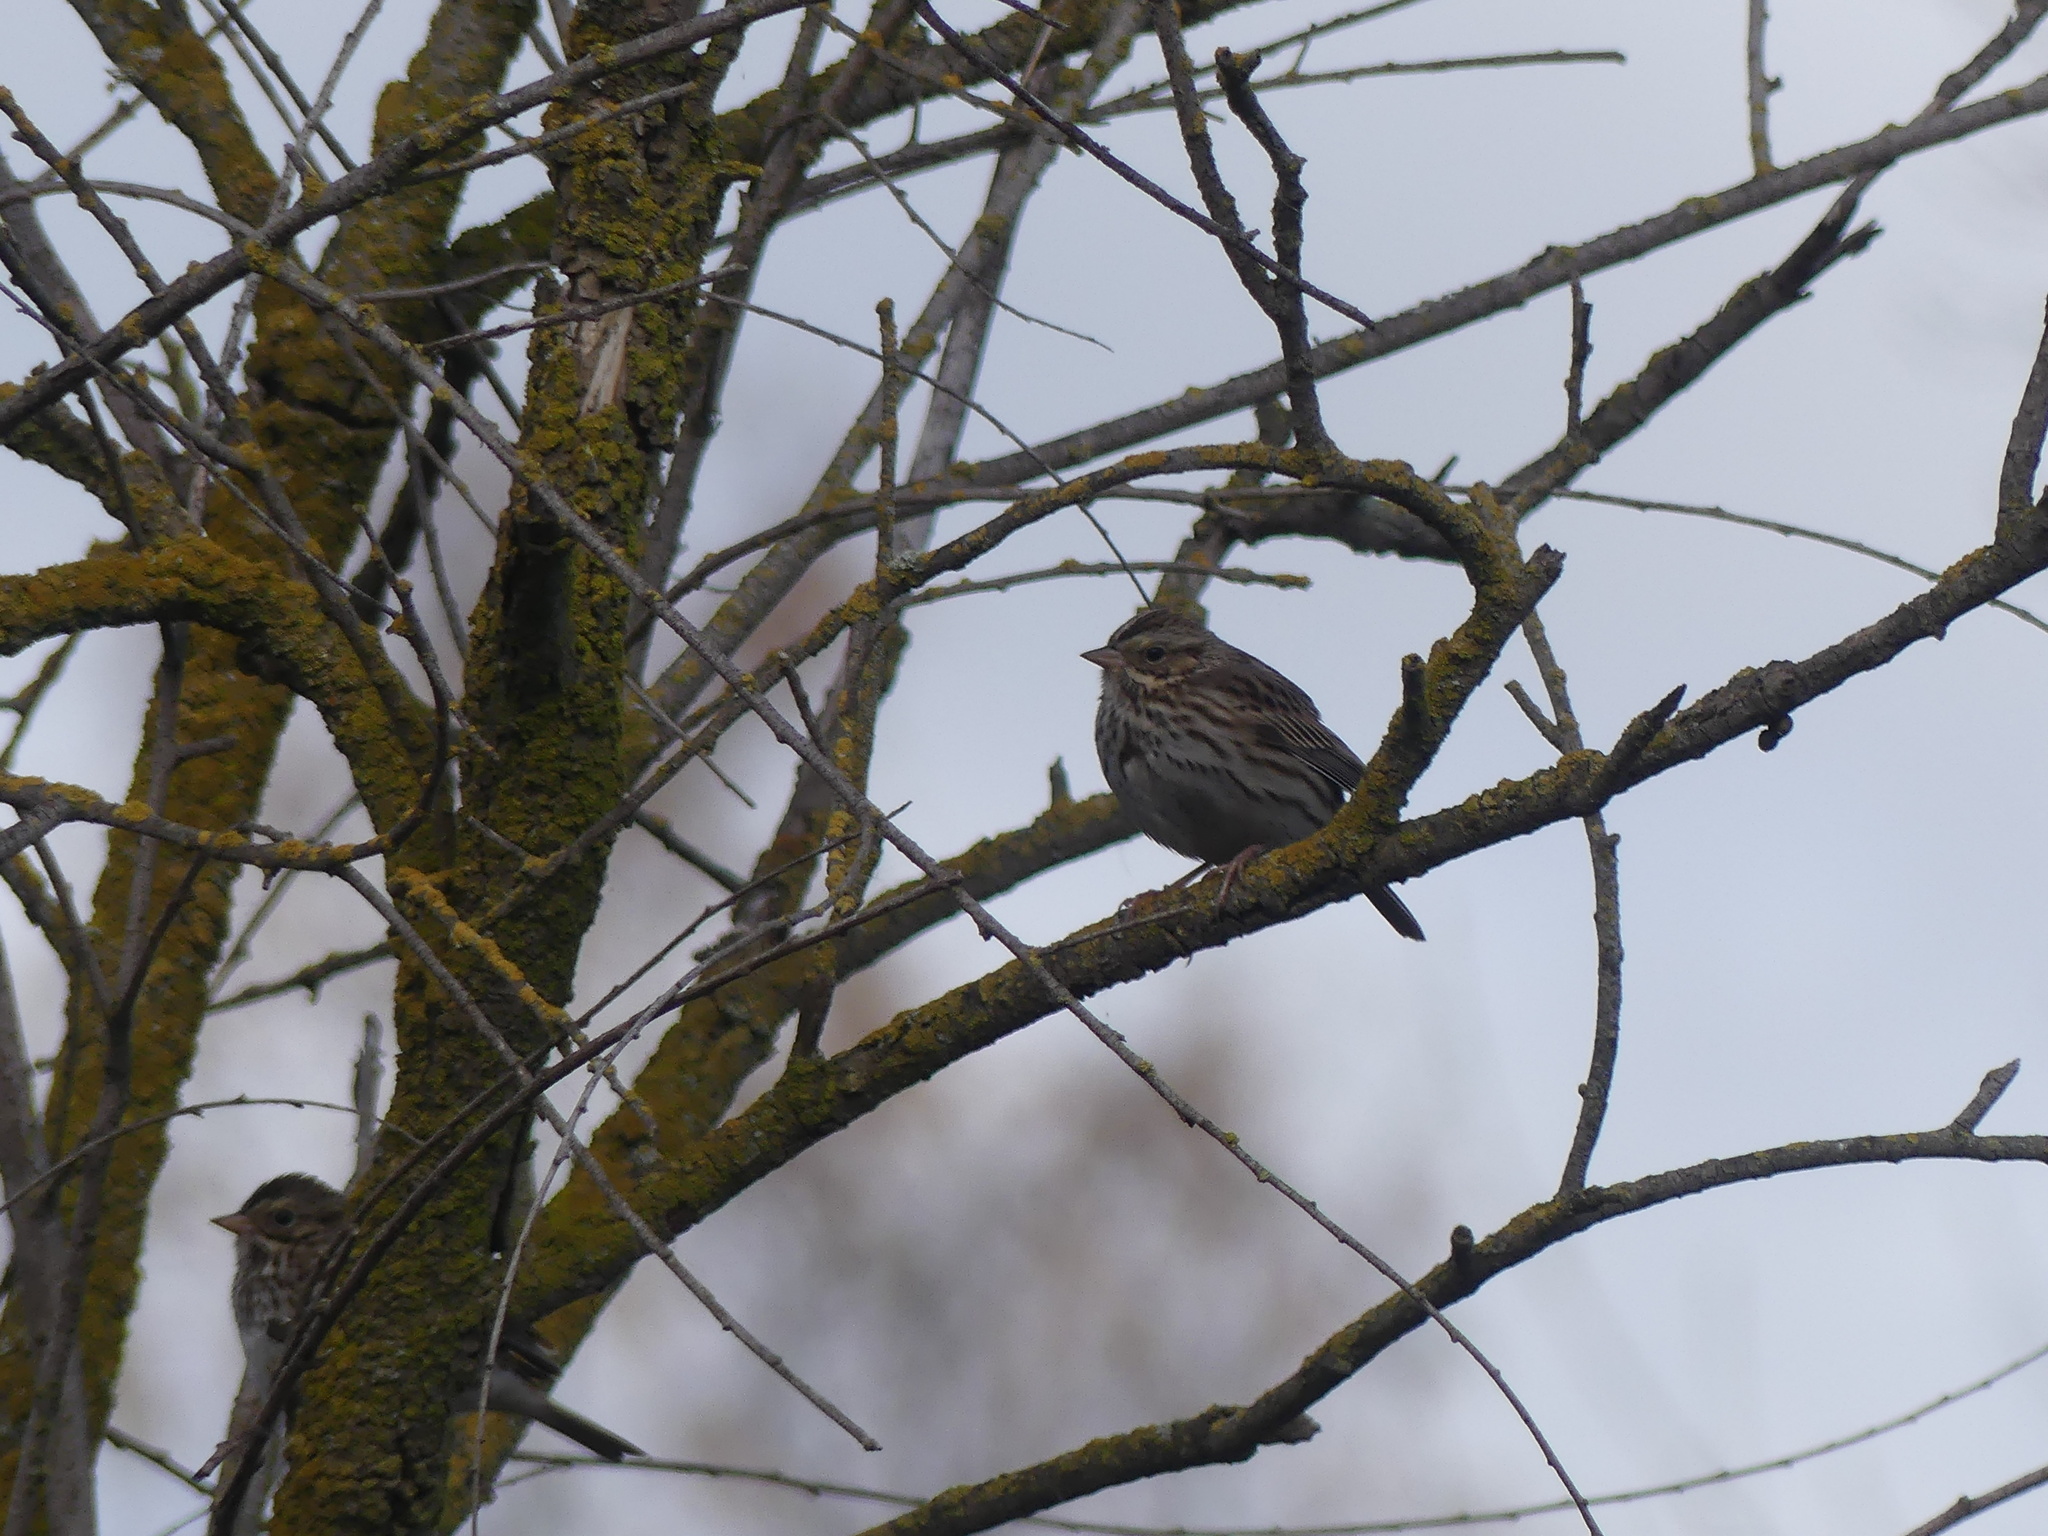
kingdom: Animalia
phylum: Chordata
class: Aves
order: Passeriformes
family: Passerellidae
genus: Melospiza
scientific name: Melospiza melodia
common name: Song sparrow
